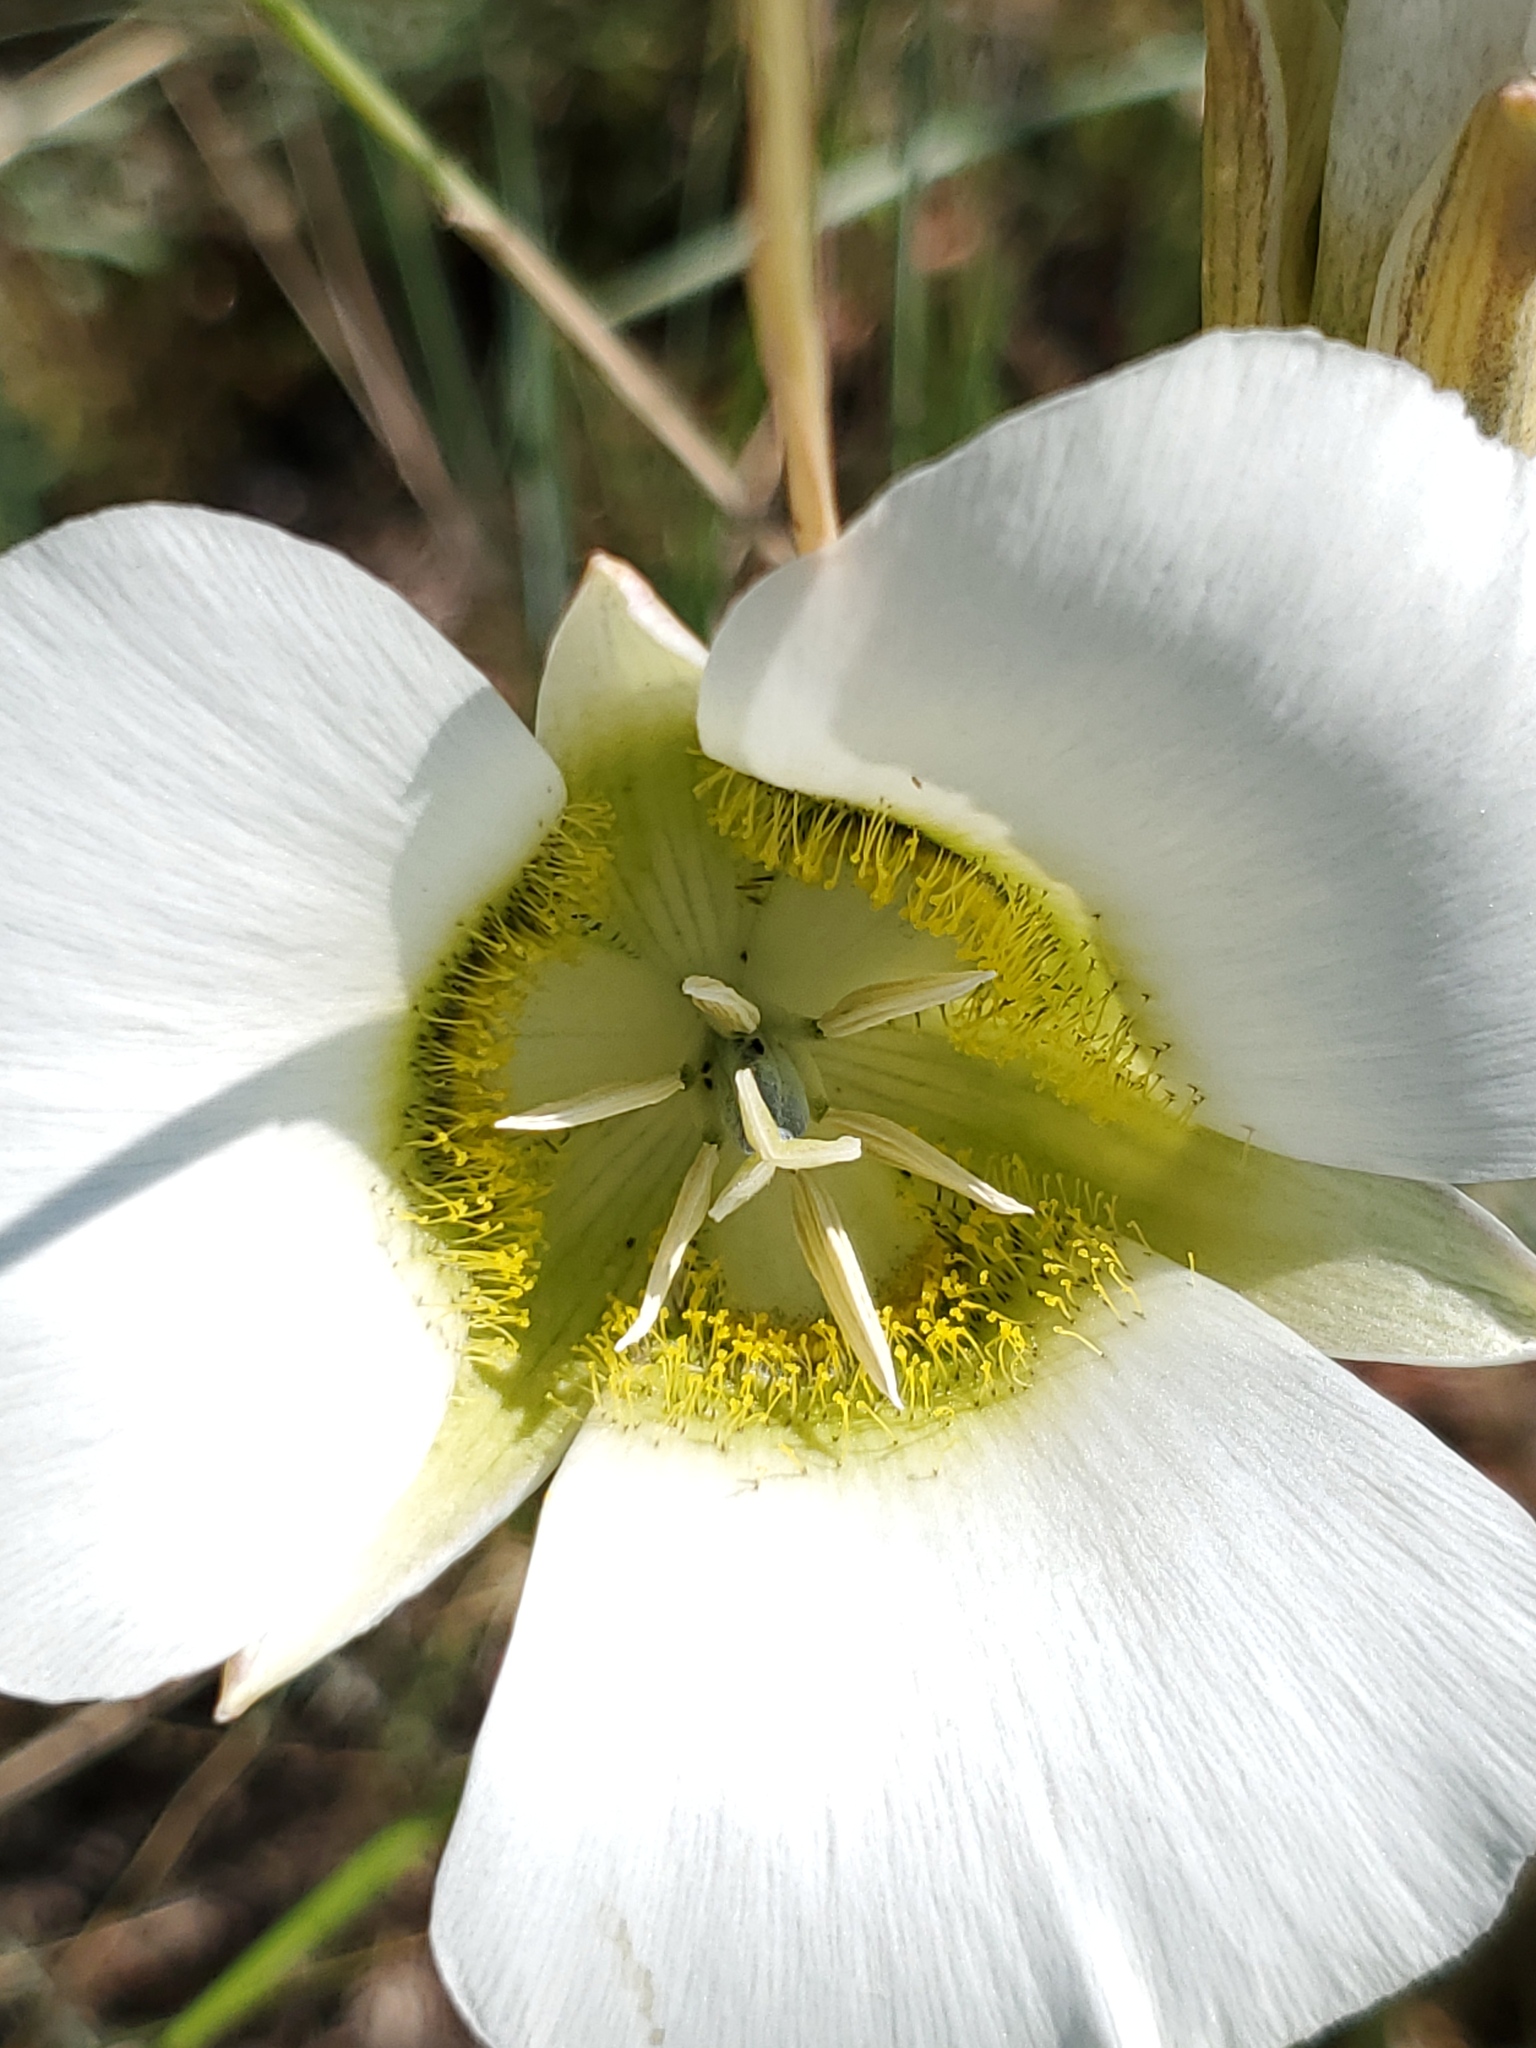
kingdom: Plantae
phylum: Tracheophyta
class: Liliopsida
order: Liliales
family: Liliaceae
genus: Calochortus
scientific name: Calochortus gunnisonii
